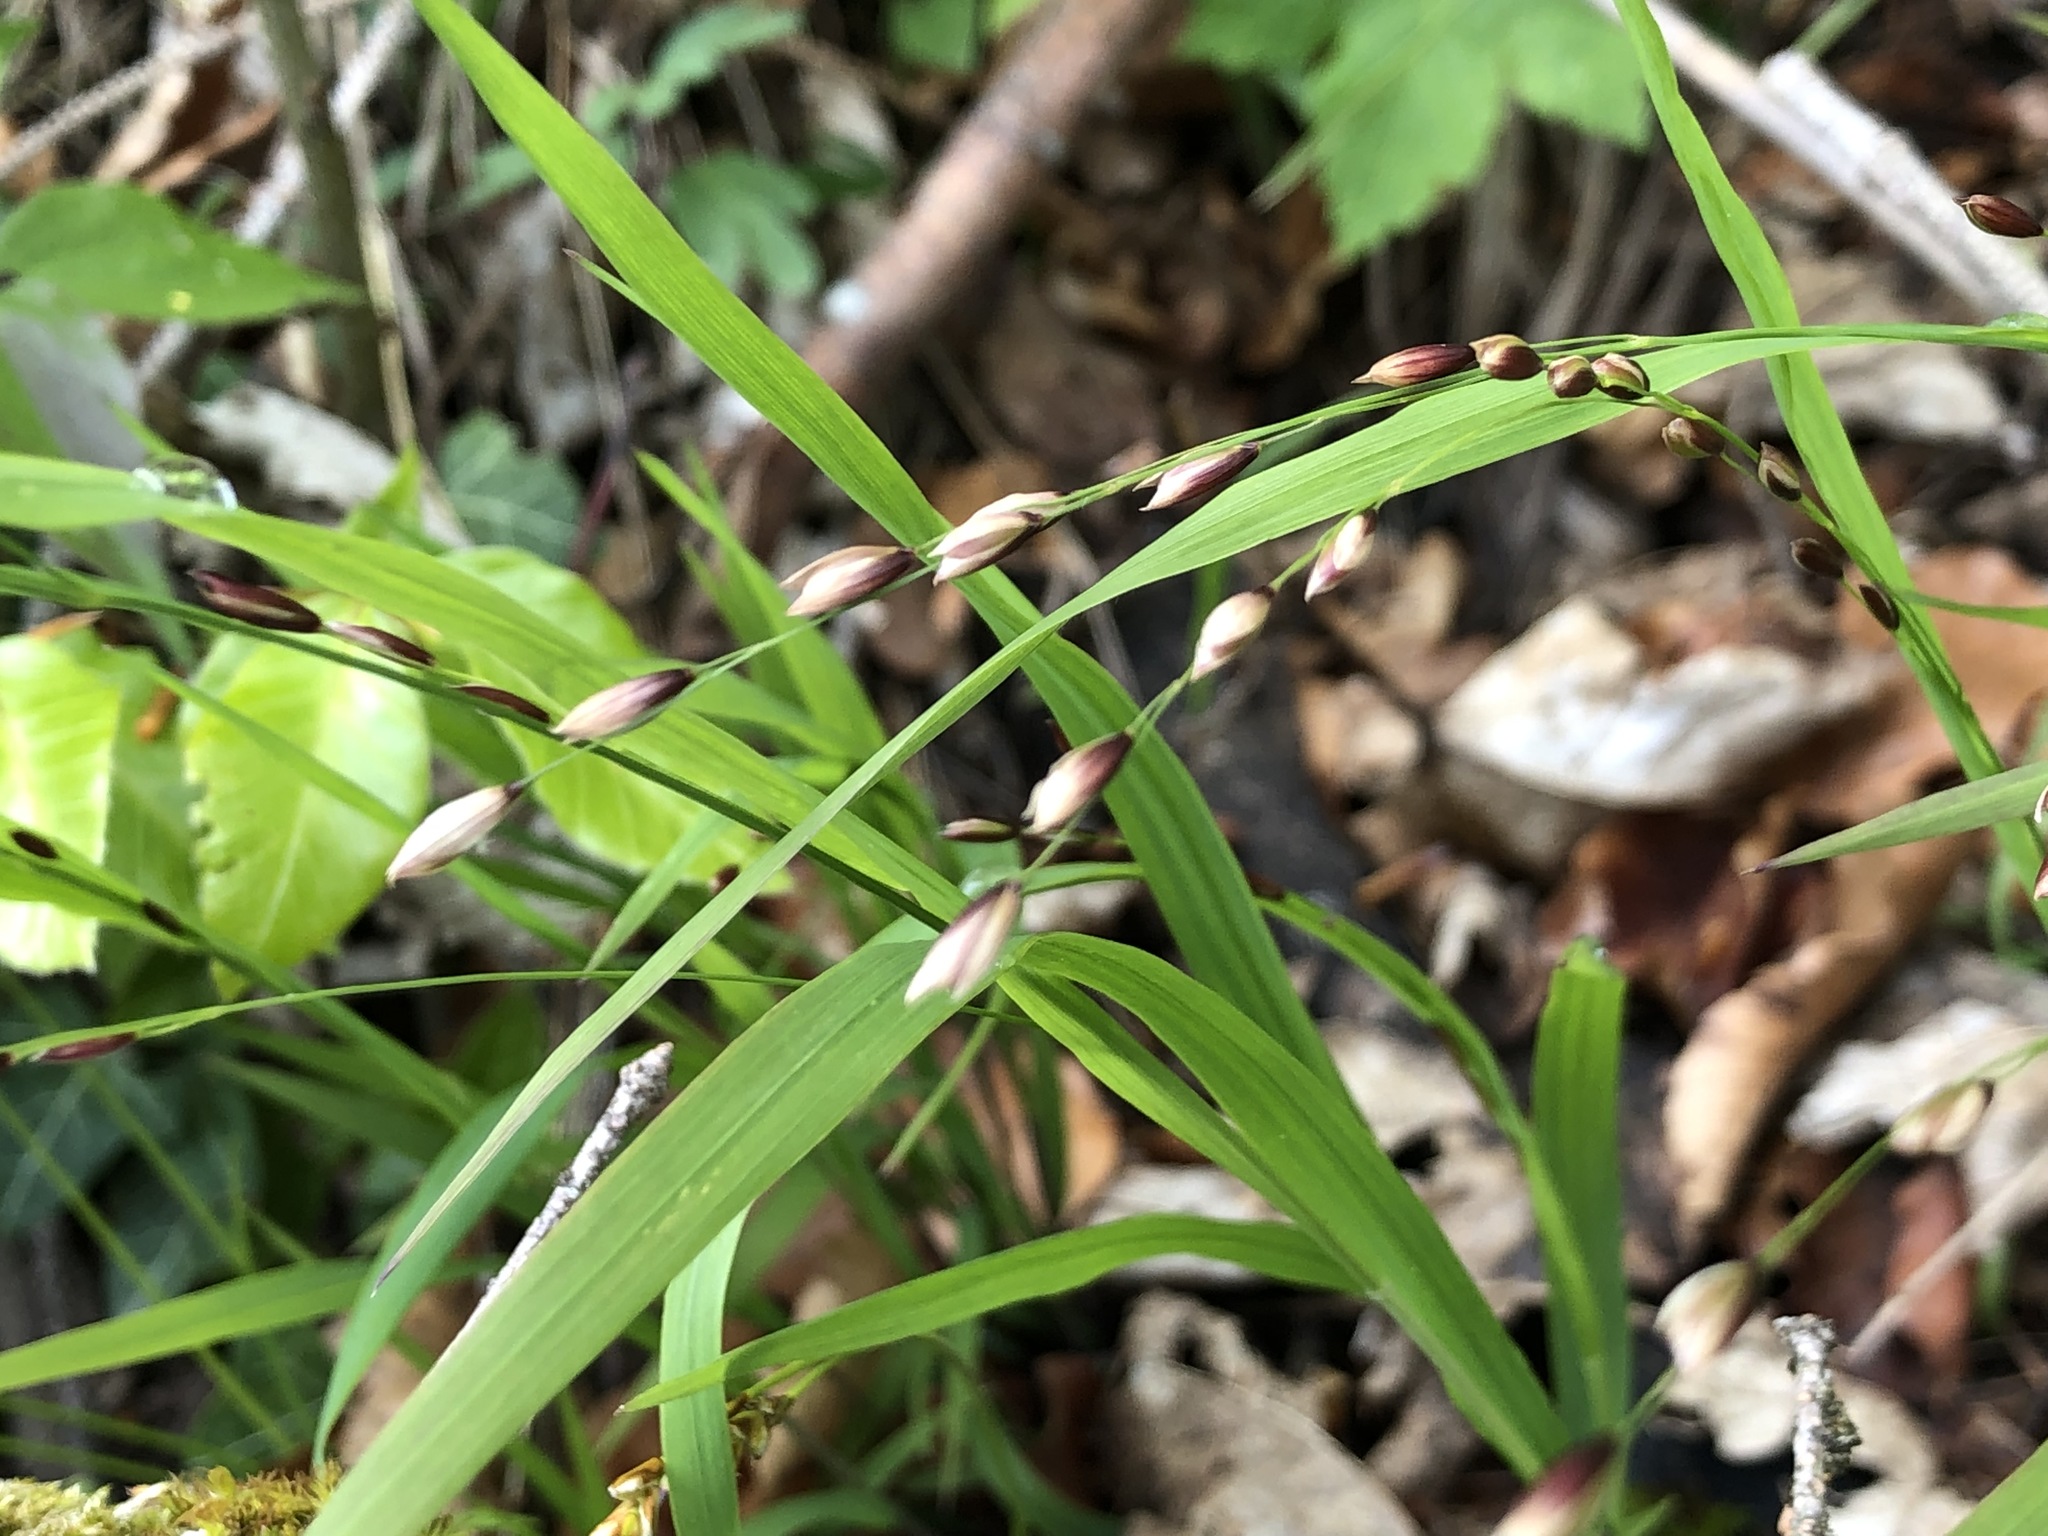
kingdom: Plantae
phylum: Tracheophyta
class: Liliopsida
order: Poales
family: Poaceae
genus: Melica
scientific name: Melica uniflora
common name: Wood melick
